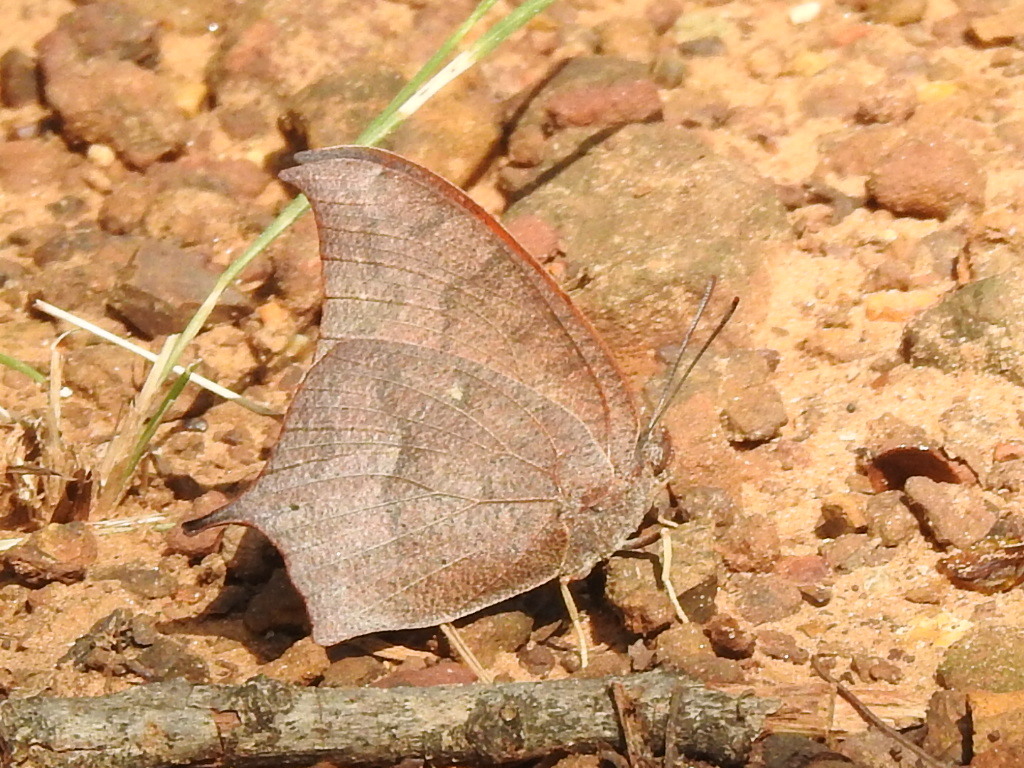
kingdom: Animalia
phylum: Arthropoda
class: Insecta
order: Lepidoptera
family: Nymphalidae
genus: Anaea
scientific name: Anaea andria
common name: Goatweed leafwing
